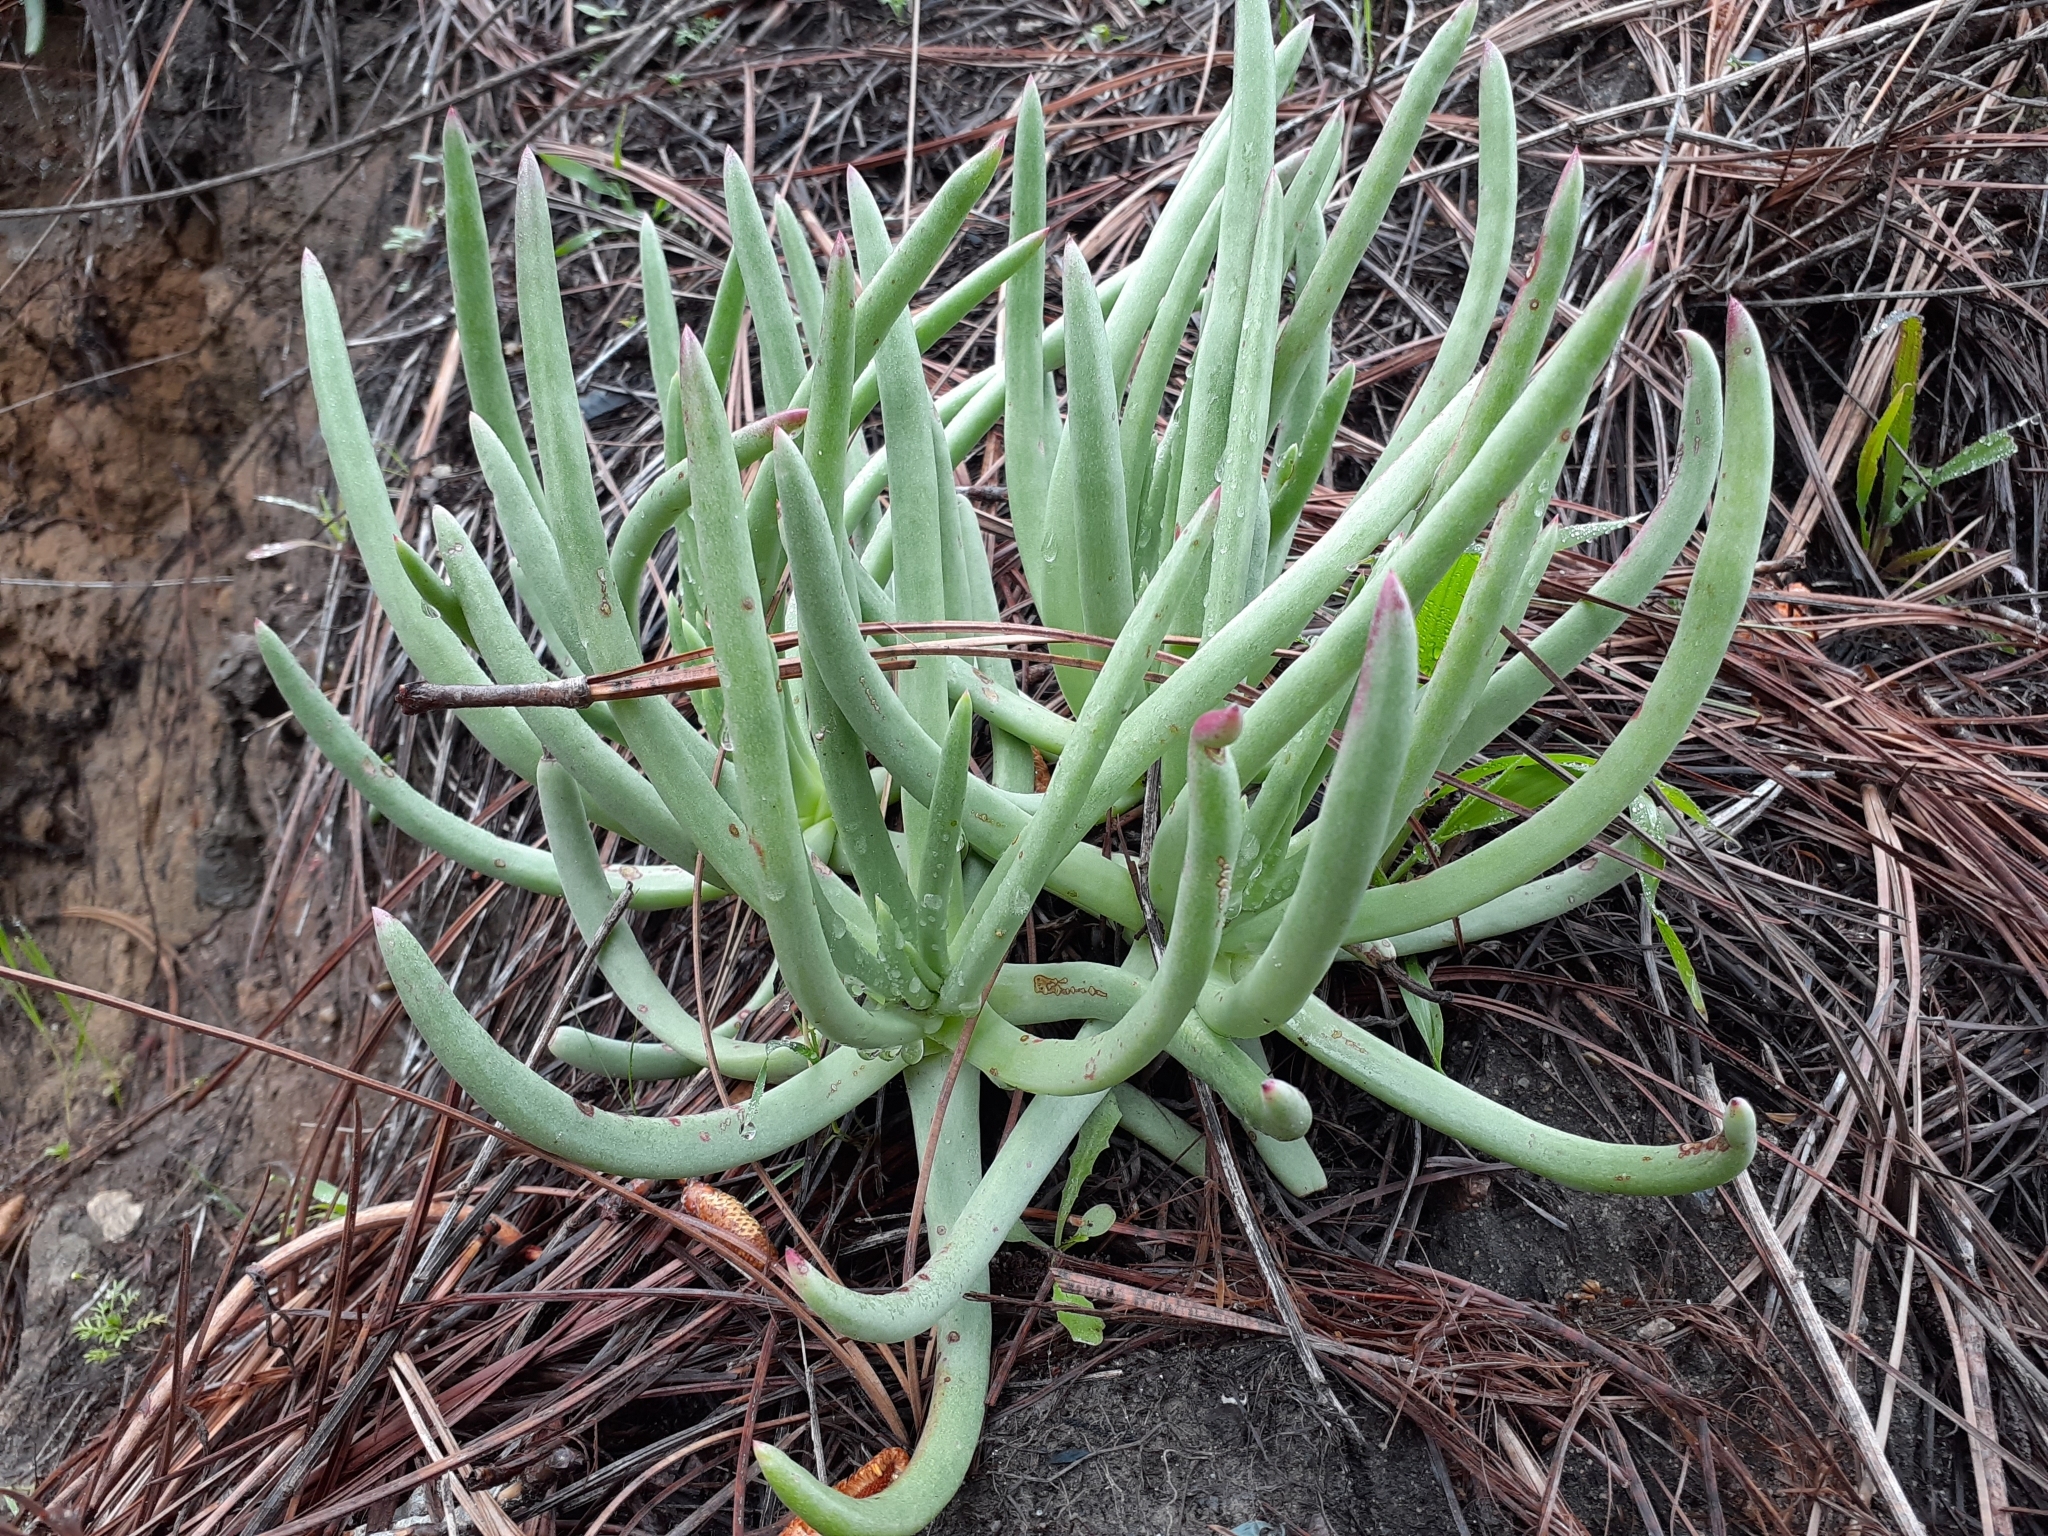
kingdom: Plantae
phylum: Tracheophyta
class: Magnoliopsida
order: Saxifragales
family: Crassulaceae
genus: Dudleya
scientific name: Dudleya edulis
